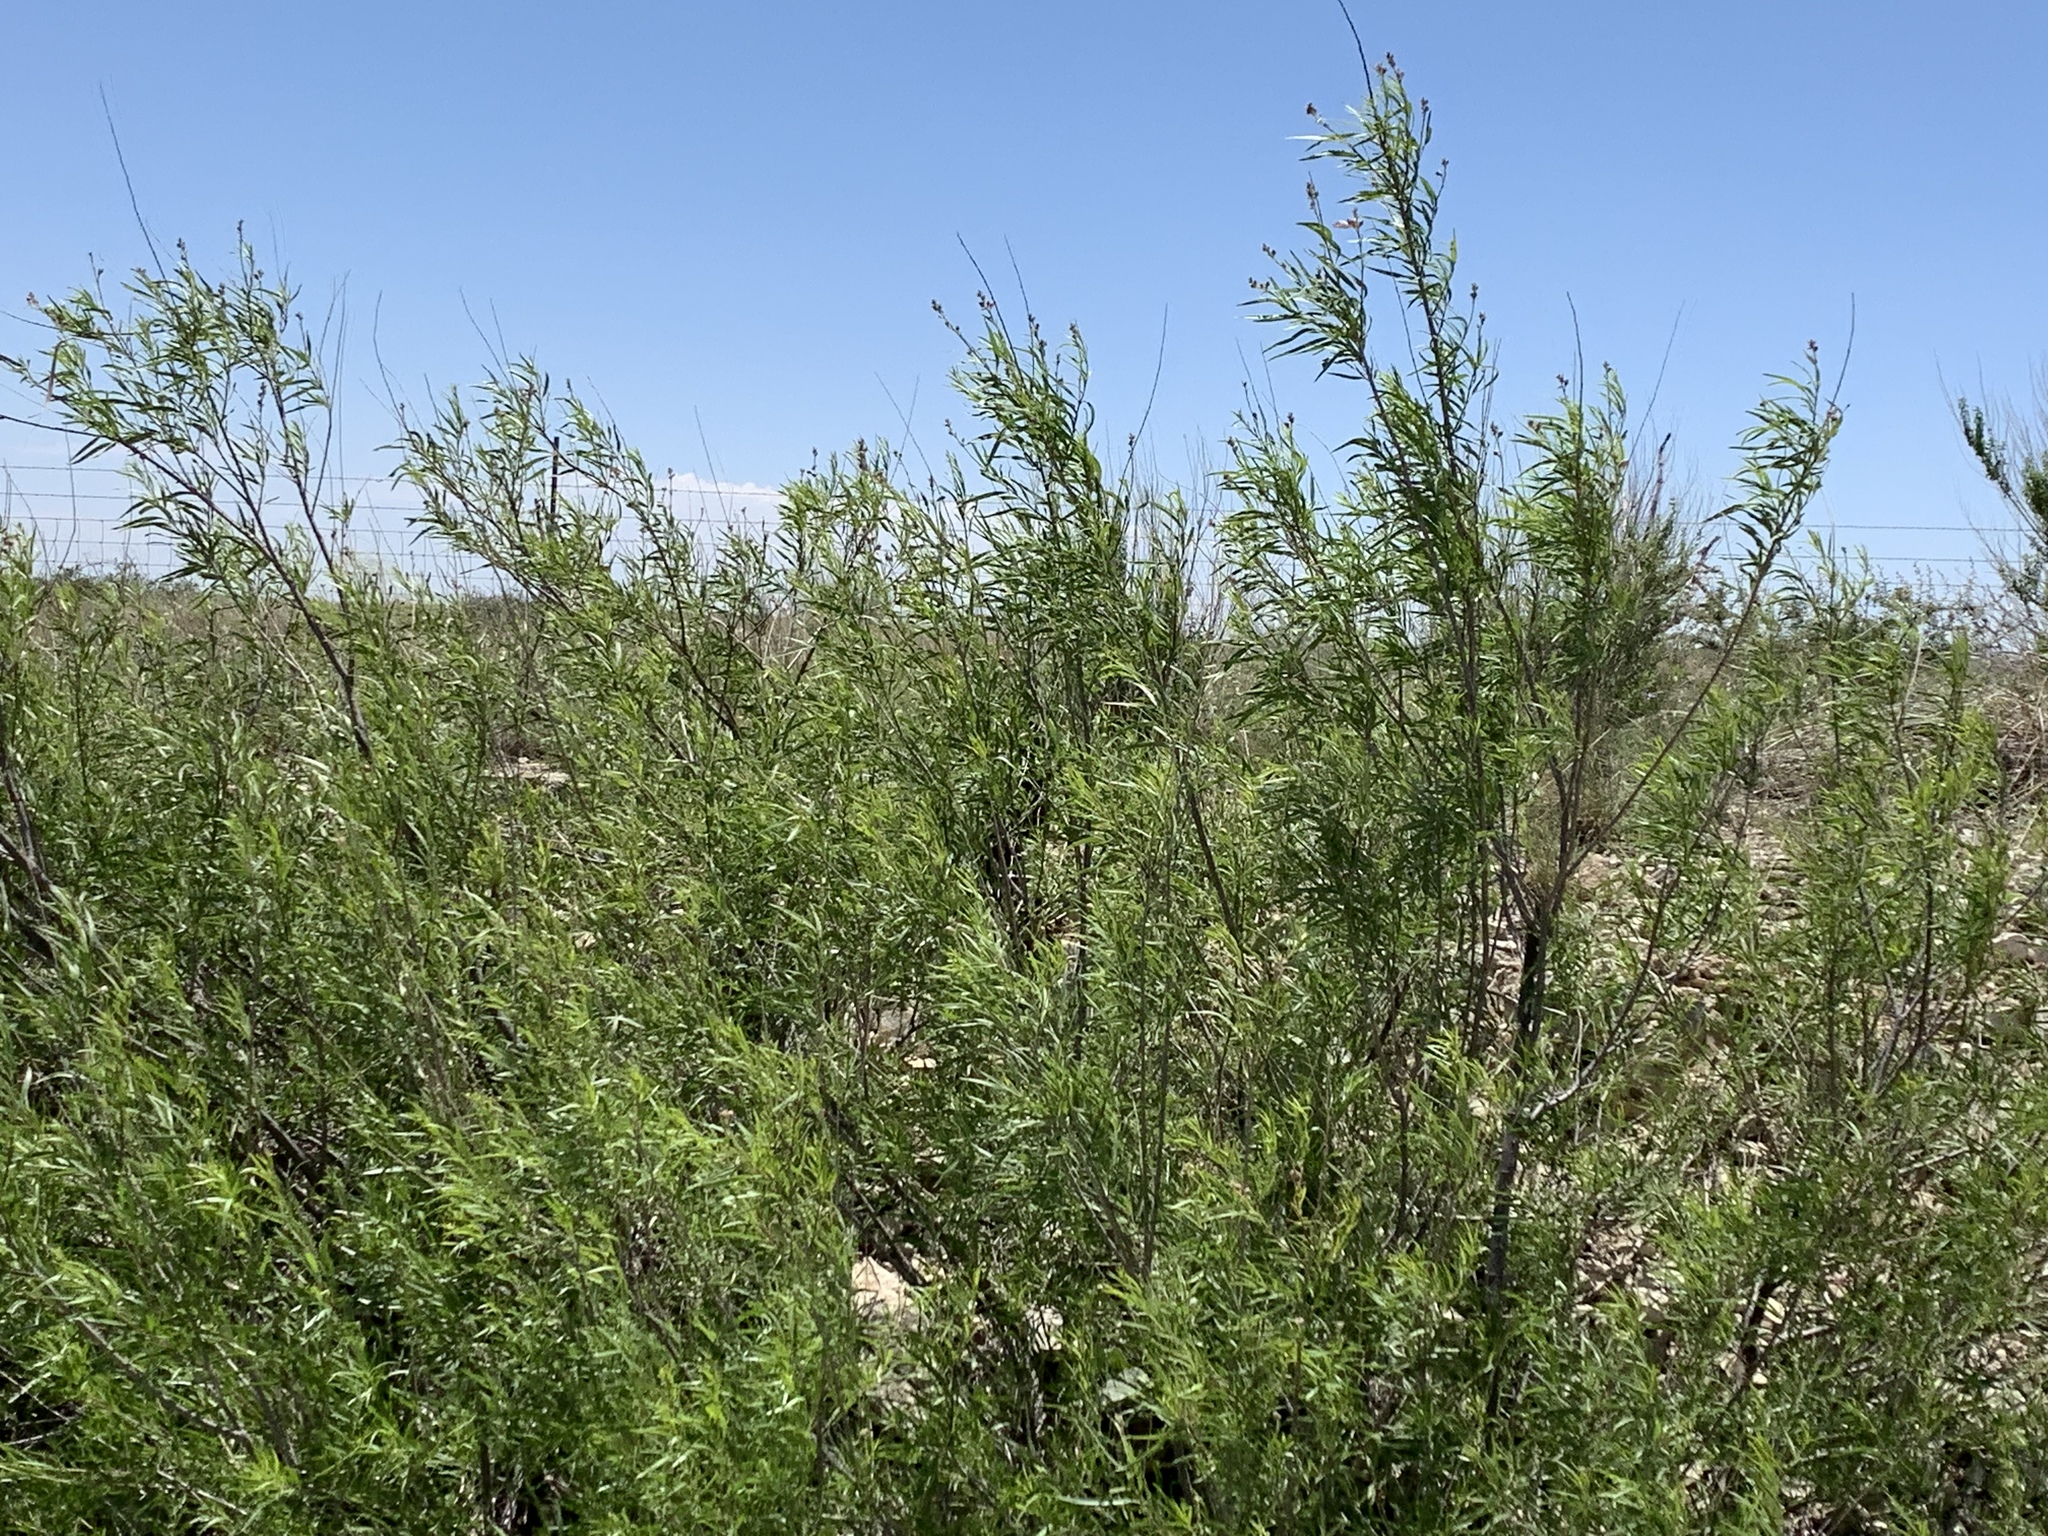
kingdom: Plantae
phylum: Tracheophyta
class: Magnoliopsida
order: Lamiales
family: Bignoniaceae
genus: Chilopsis
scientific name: Chilopsis linearis
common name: Desert-willow
